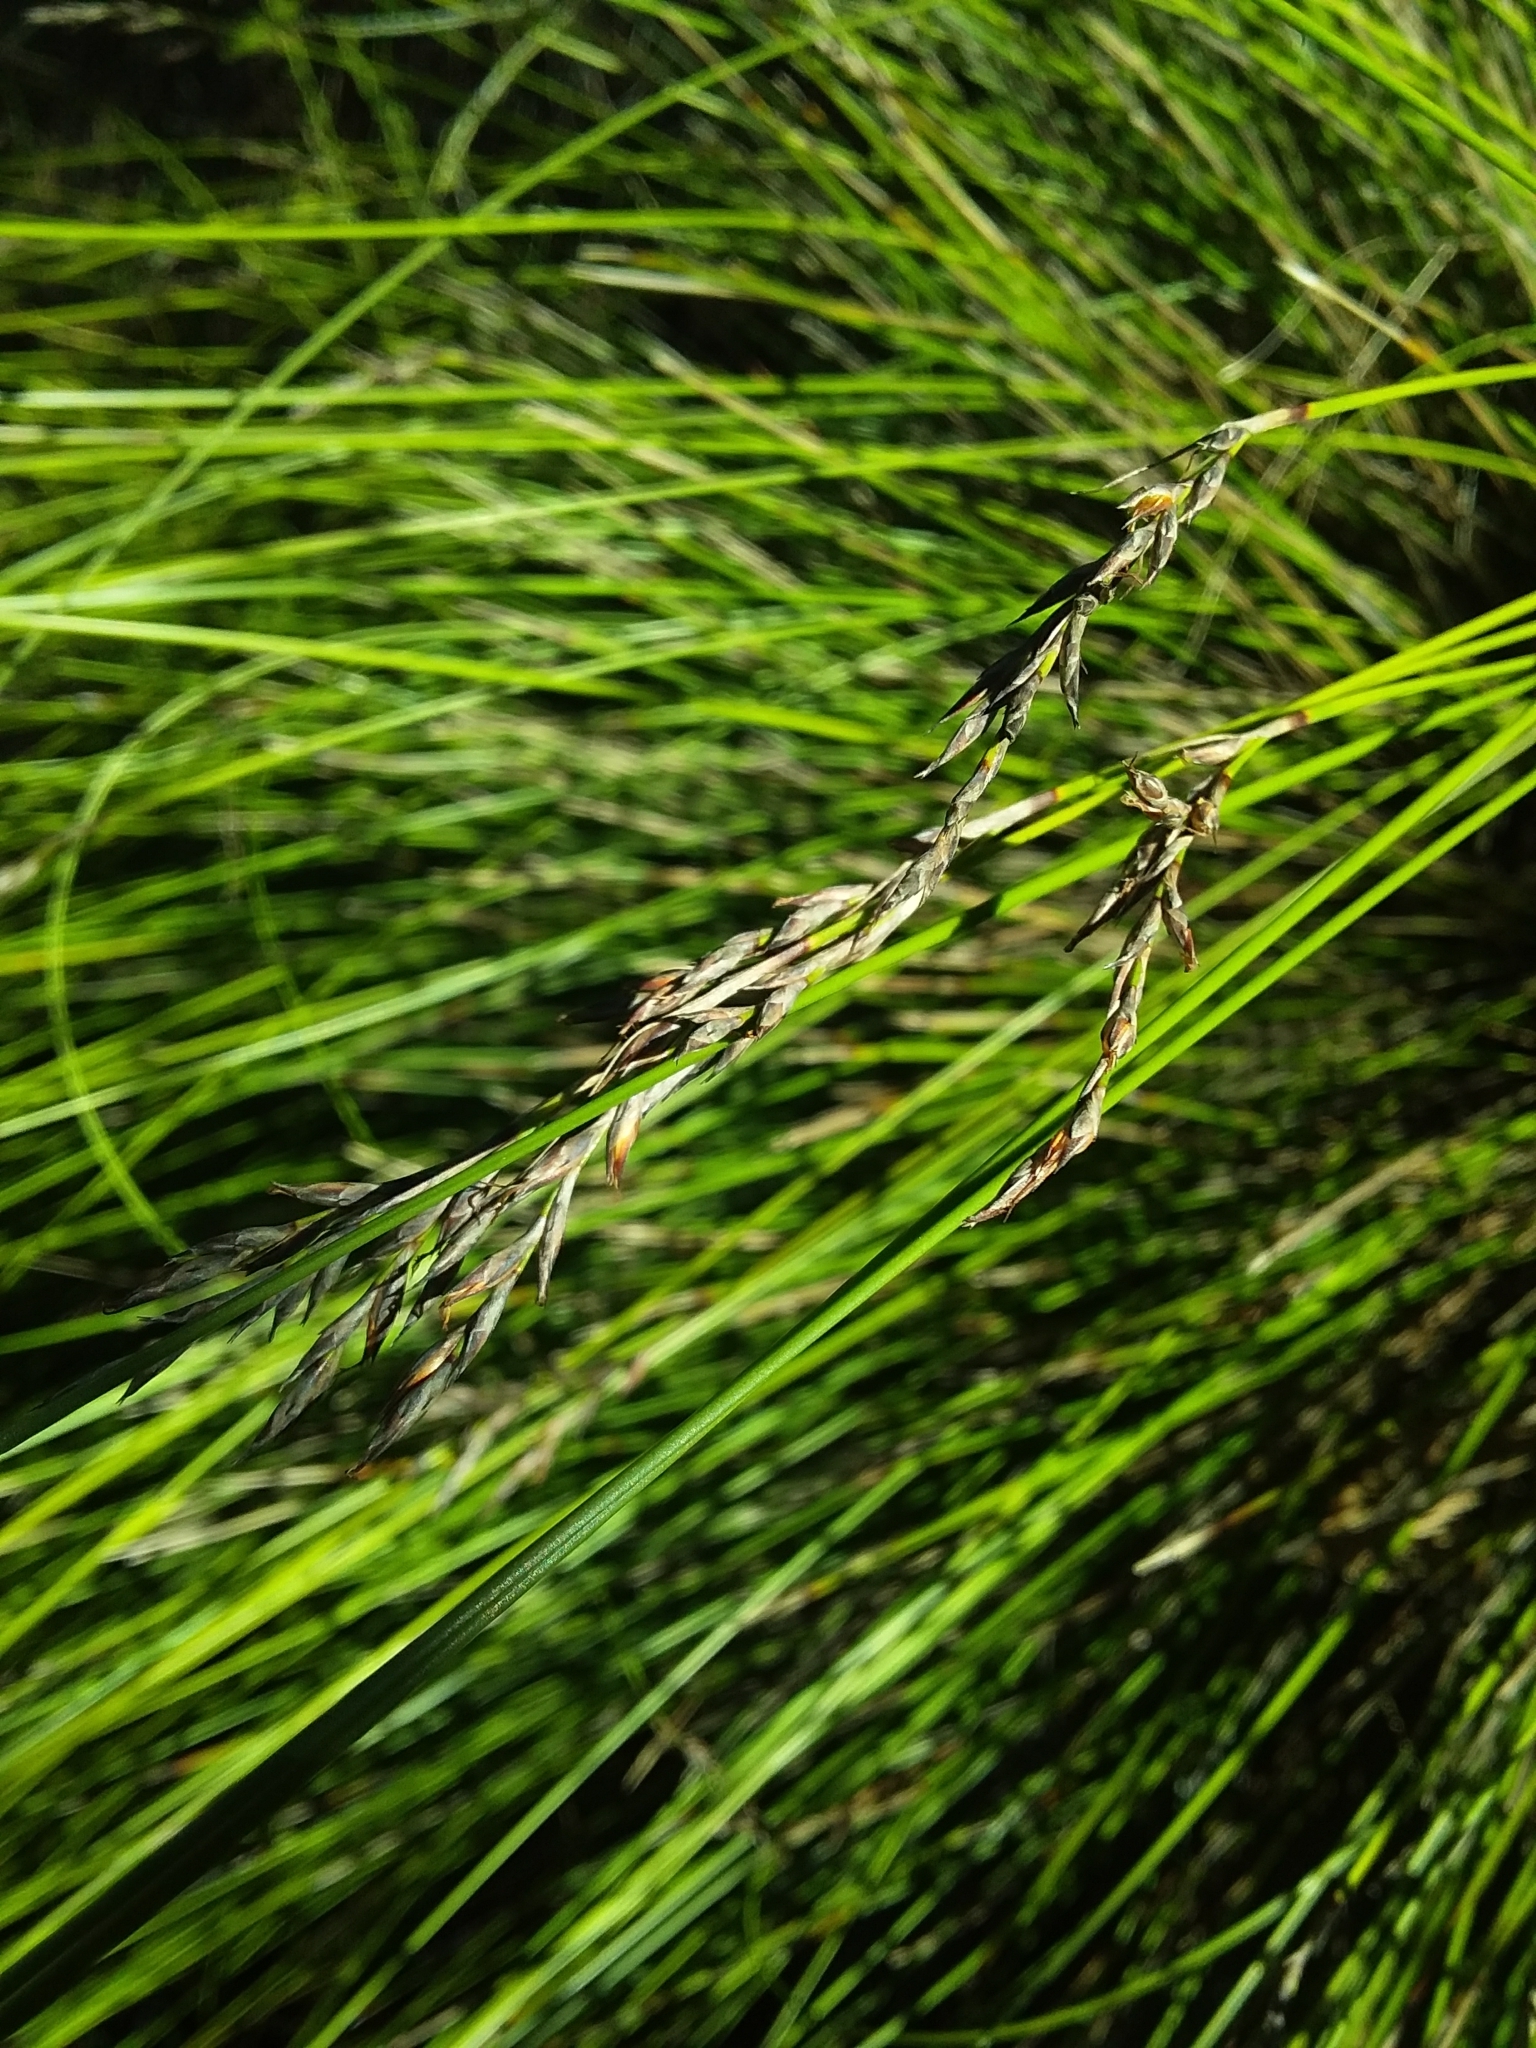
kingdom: Plantae
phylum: Tracheophyta
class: Liliopsida
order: Poales
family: Cyperaceae
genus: Lepidosperma
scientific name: Lepidosperma semiteres
